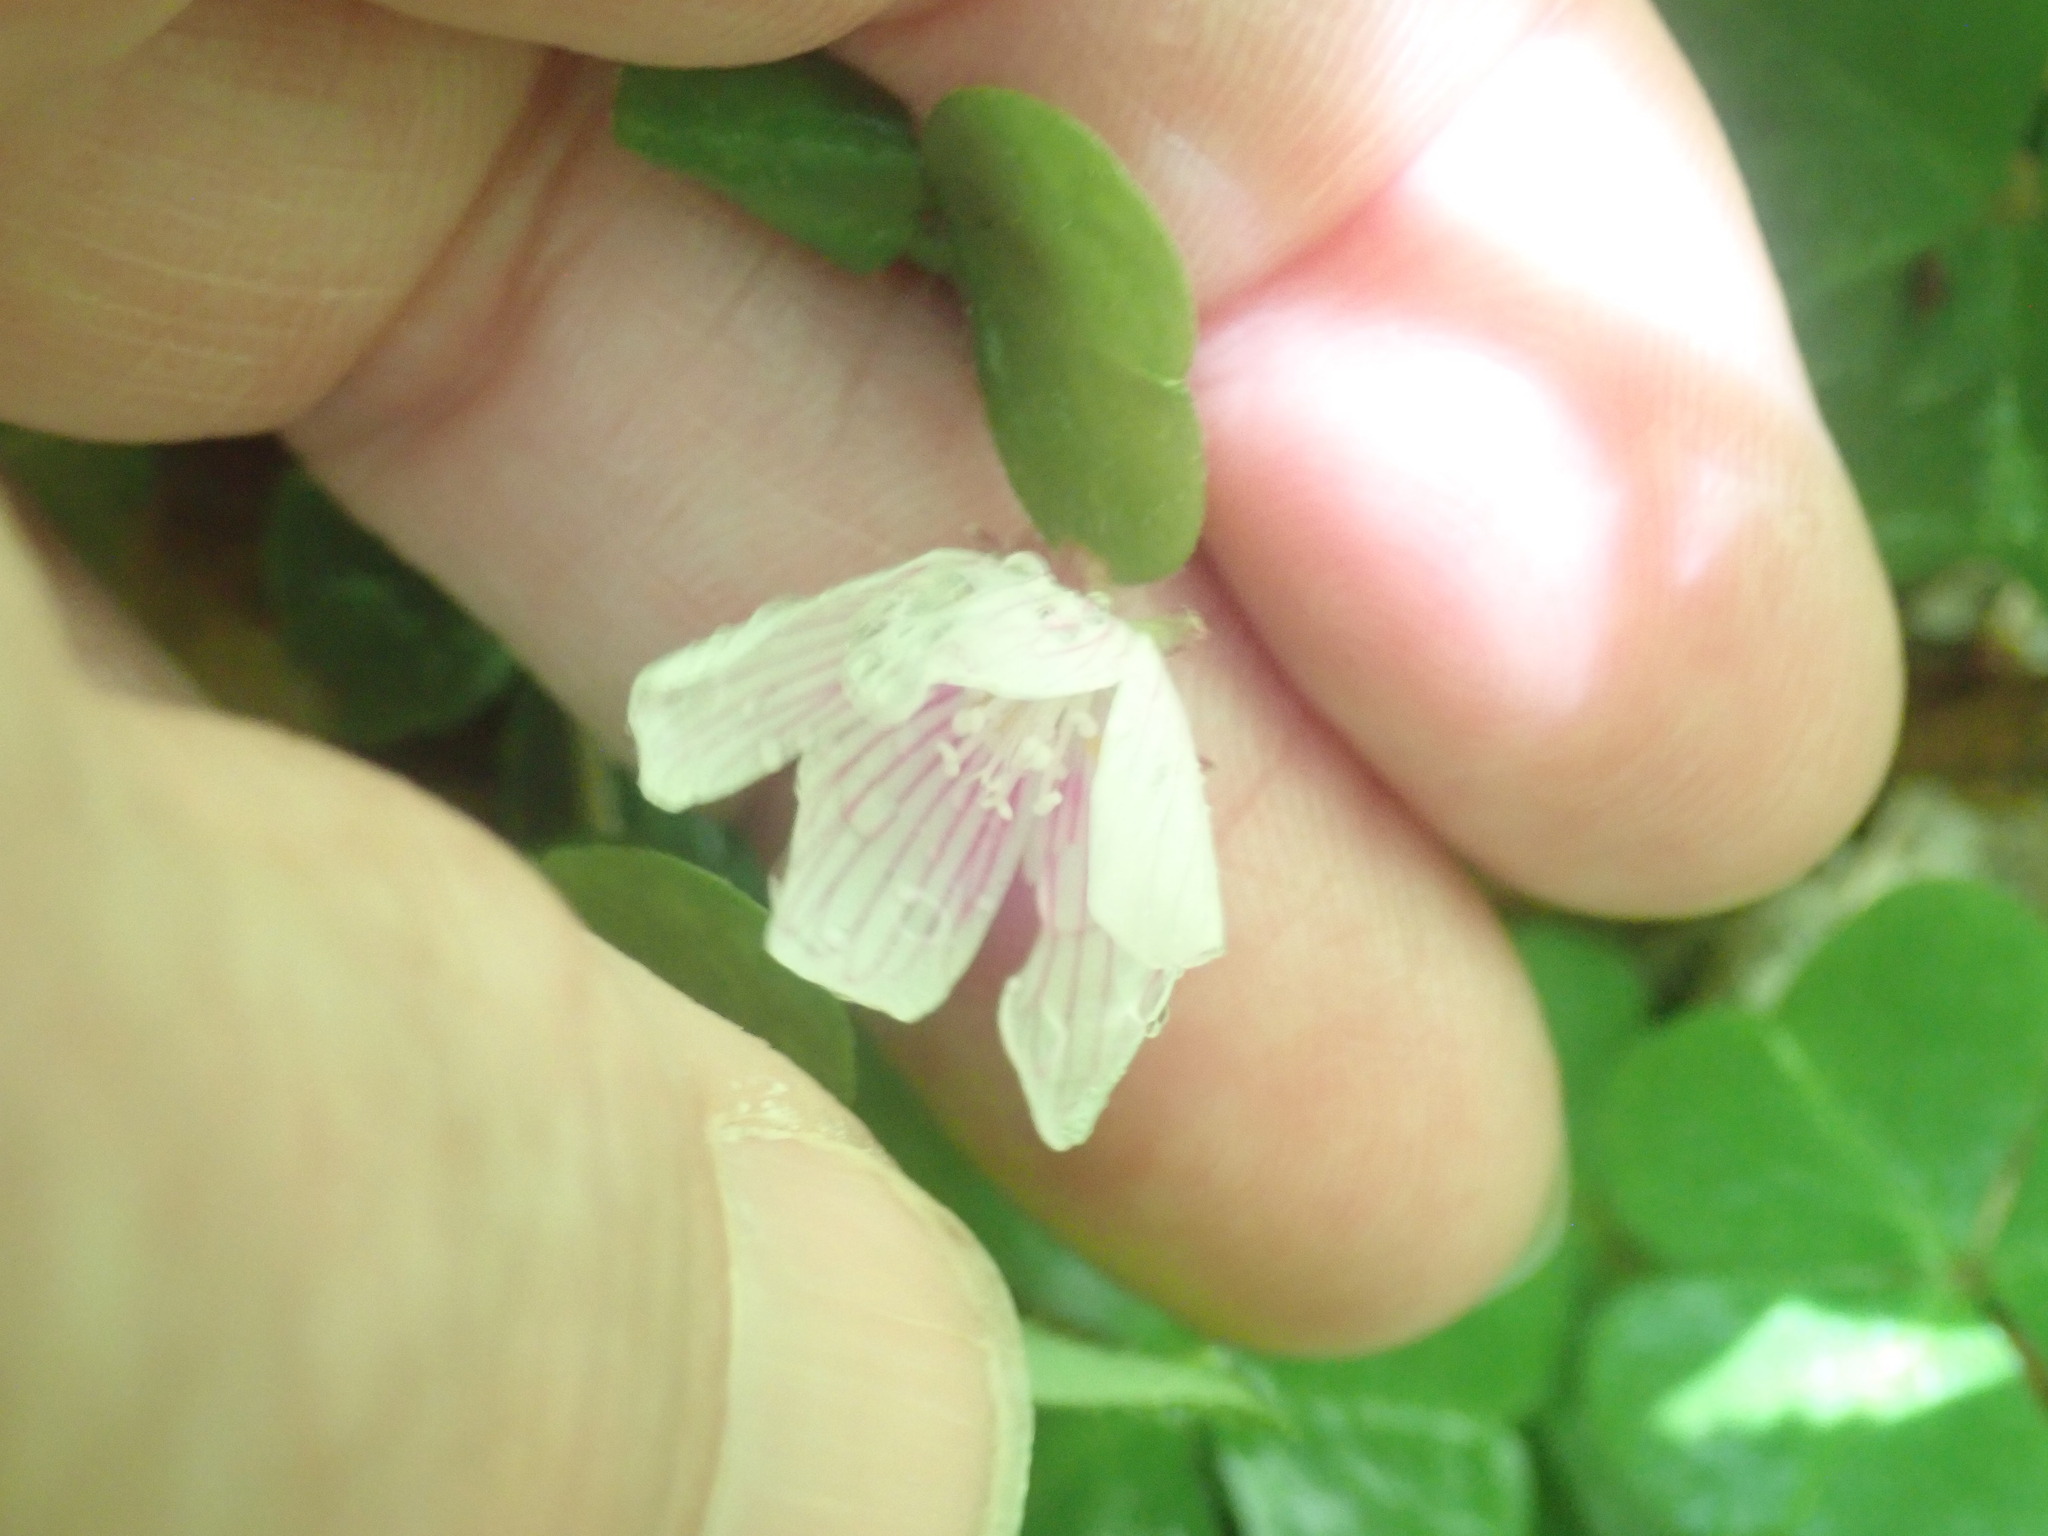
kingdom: Plantae
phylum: Tracheophyta
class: Magnoliopsida
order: Oxalidales
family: Oxalidaceae
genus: Oxalis
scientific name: Oxalis montana
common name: American wood-sorrel
